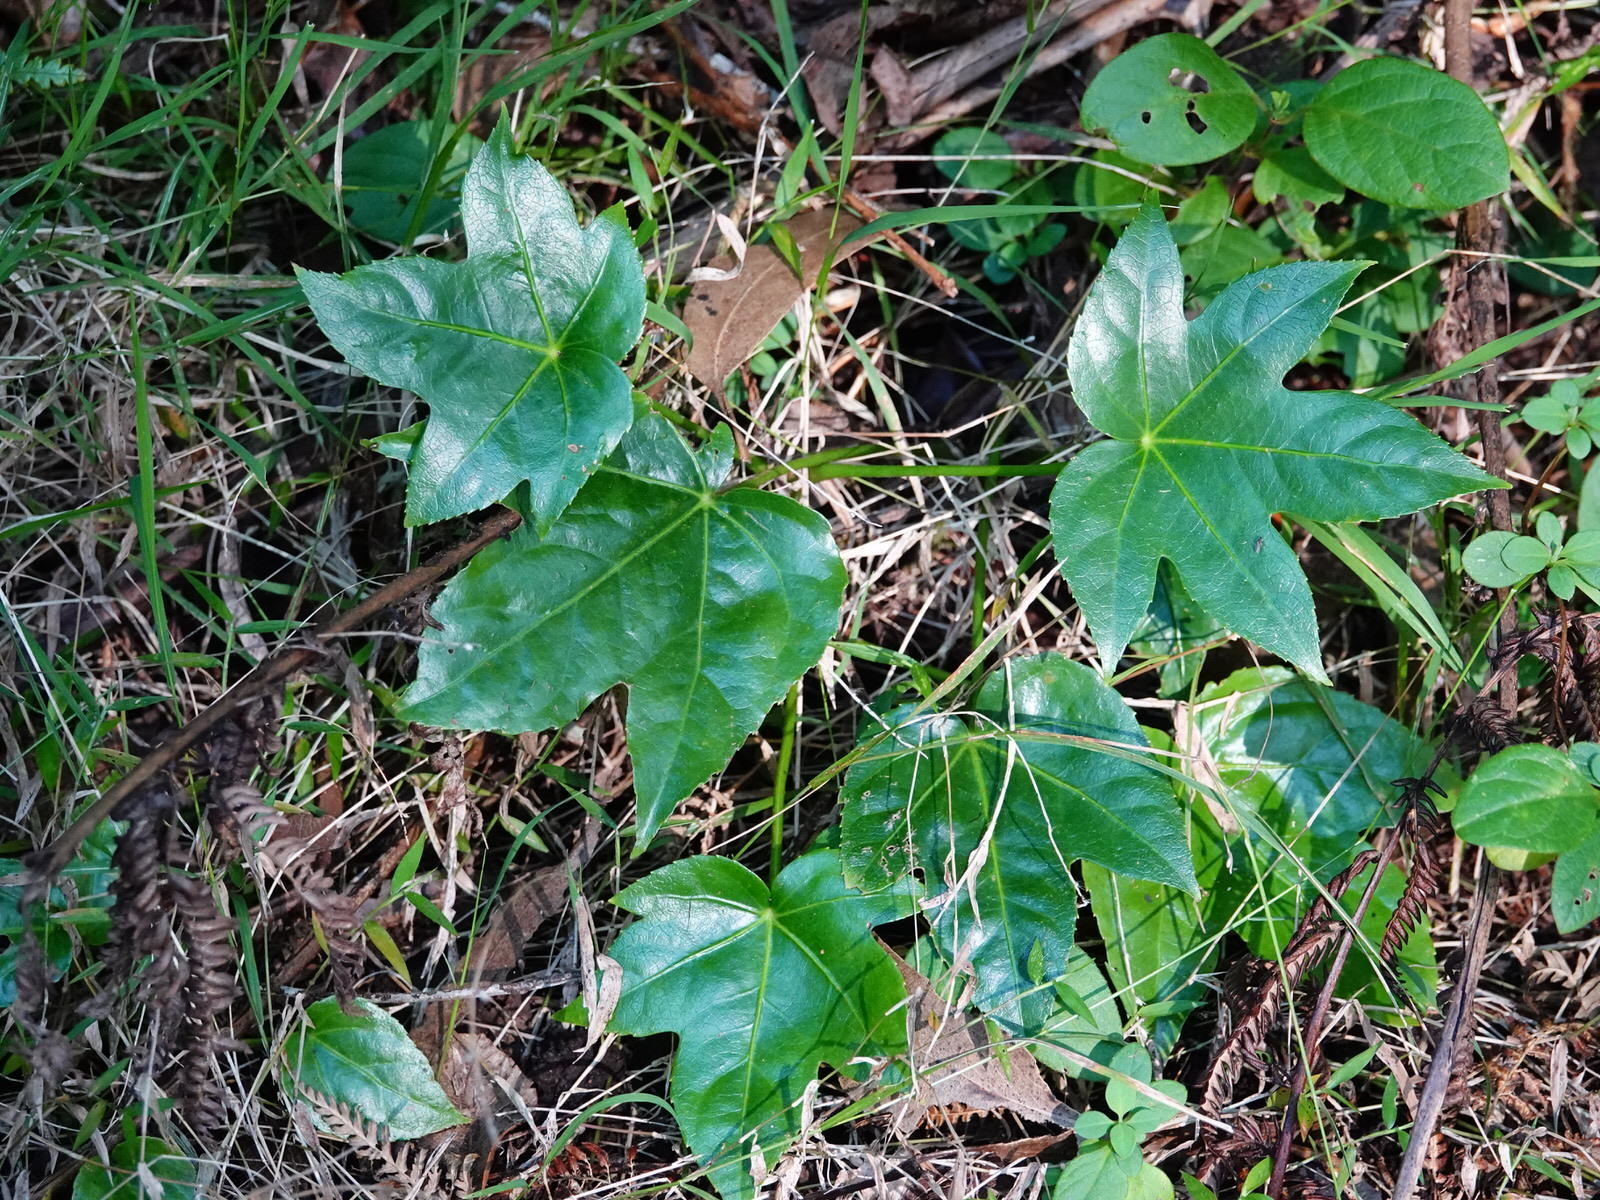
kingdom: Plantae
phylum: Tracheophyta
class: Magnoliopsida
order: Apiales
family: Araliaceae
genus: Fatsia
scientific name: Fatsia japonica
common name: Fatsia
